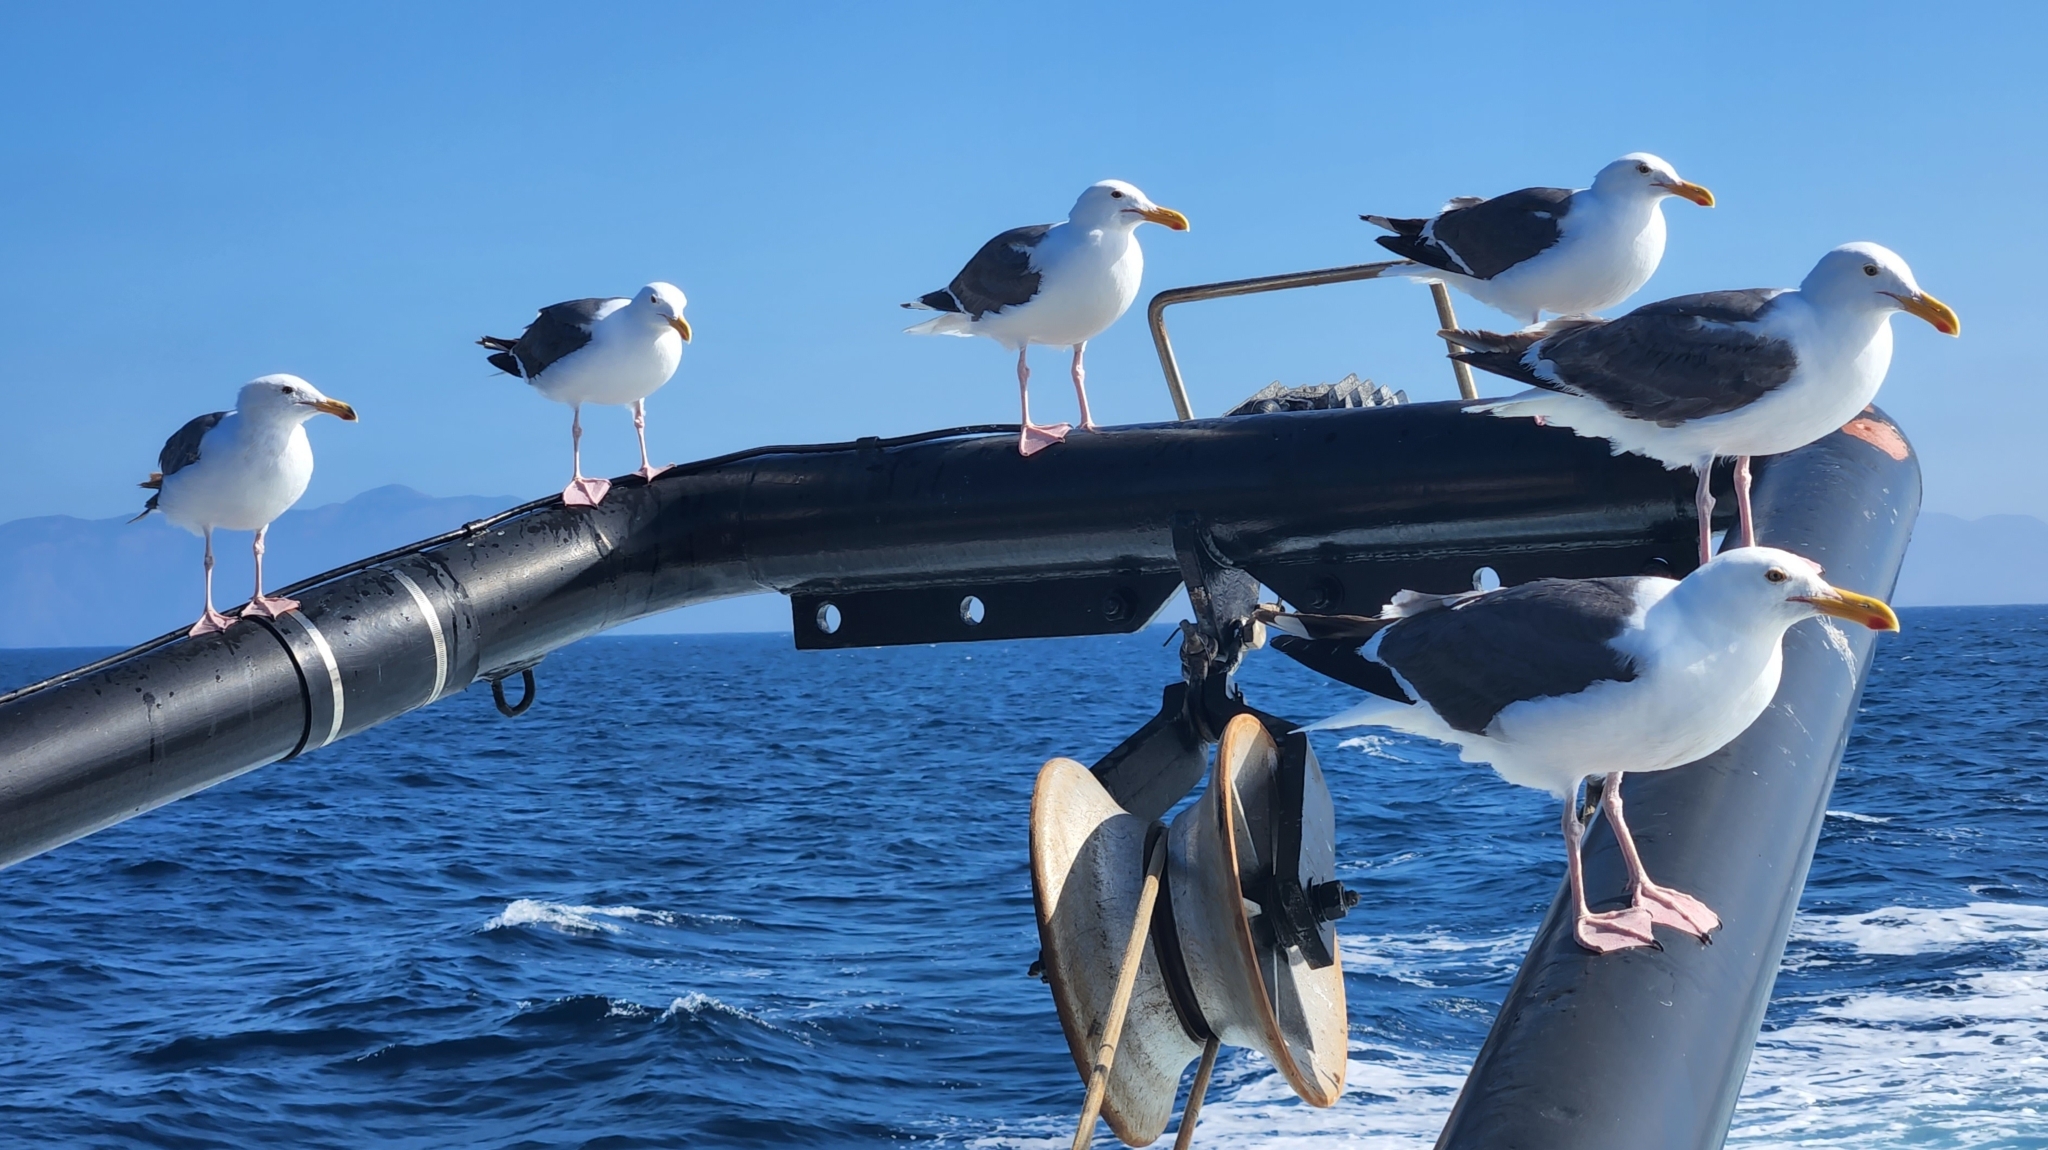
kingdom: Animalia
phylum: Chordata
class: Aves
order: Charadriiformes
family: Laridae
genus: Larus
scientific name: Larus occidentalis
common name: Western gull
